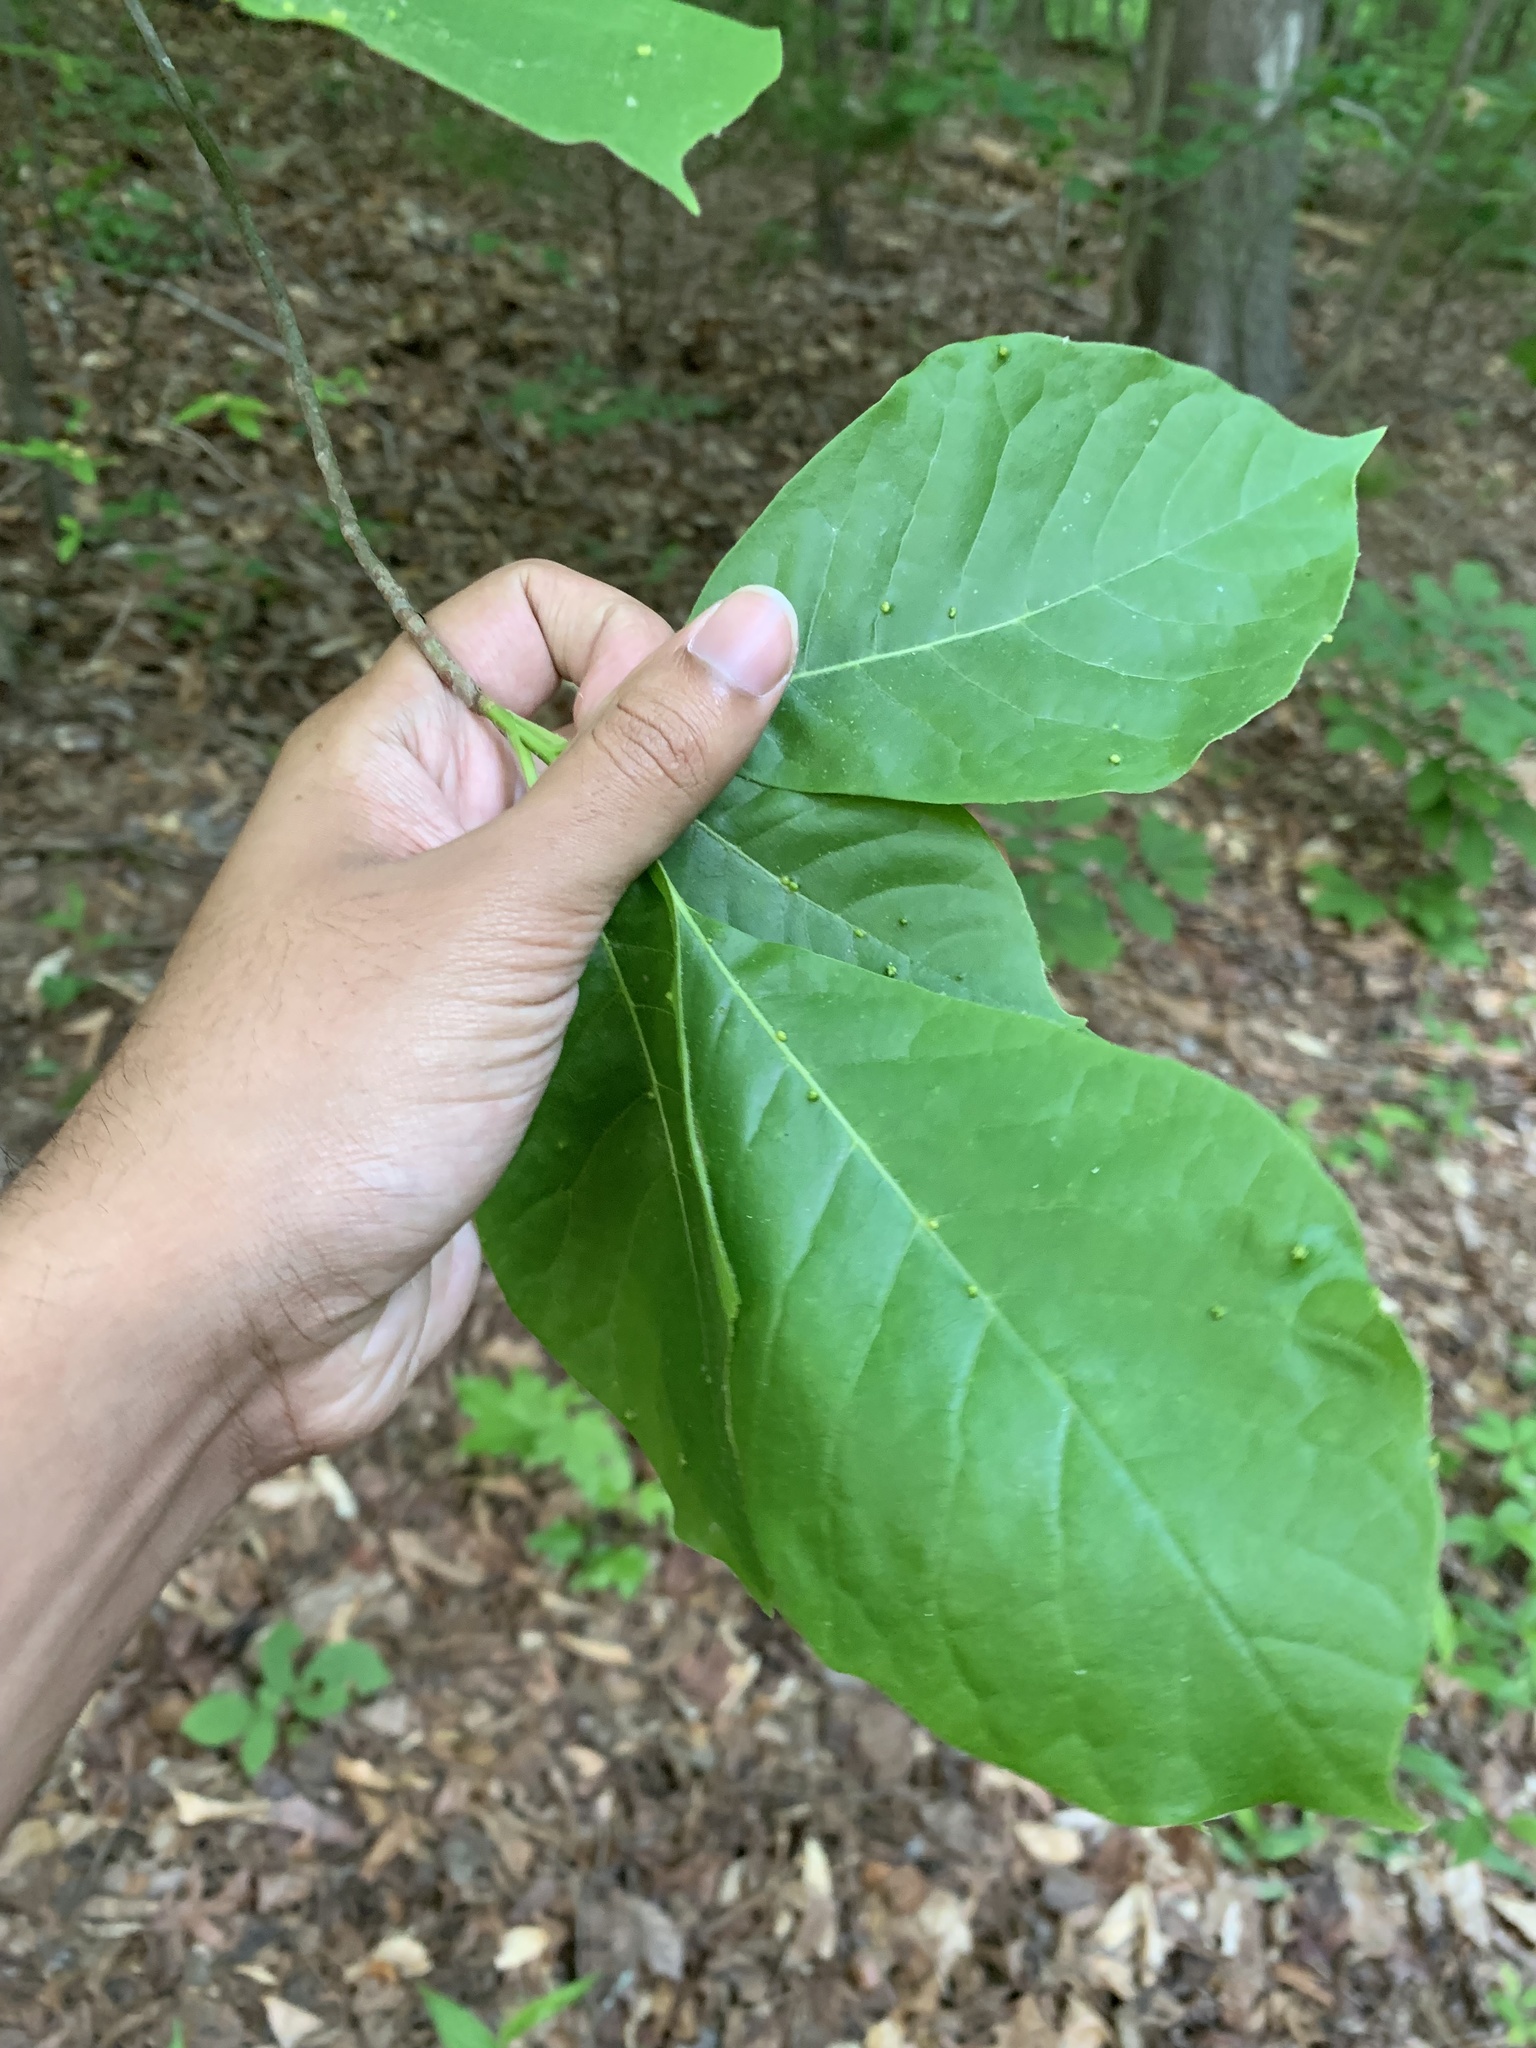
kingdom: Plantae
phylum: Tracheophyta
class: Magnoliopsida
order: Cornales
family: Nyssaceae
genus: Nyssa
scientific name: Nyssa sylvatica
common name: Black tupelo
